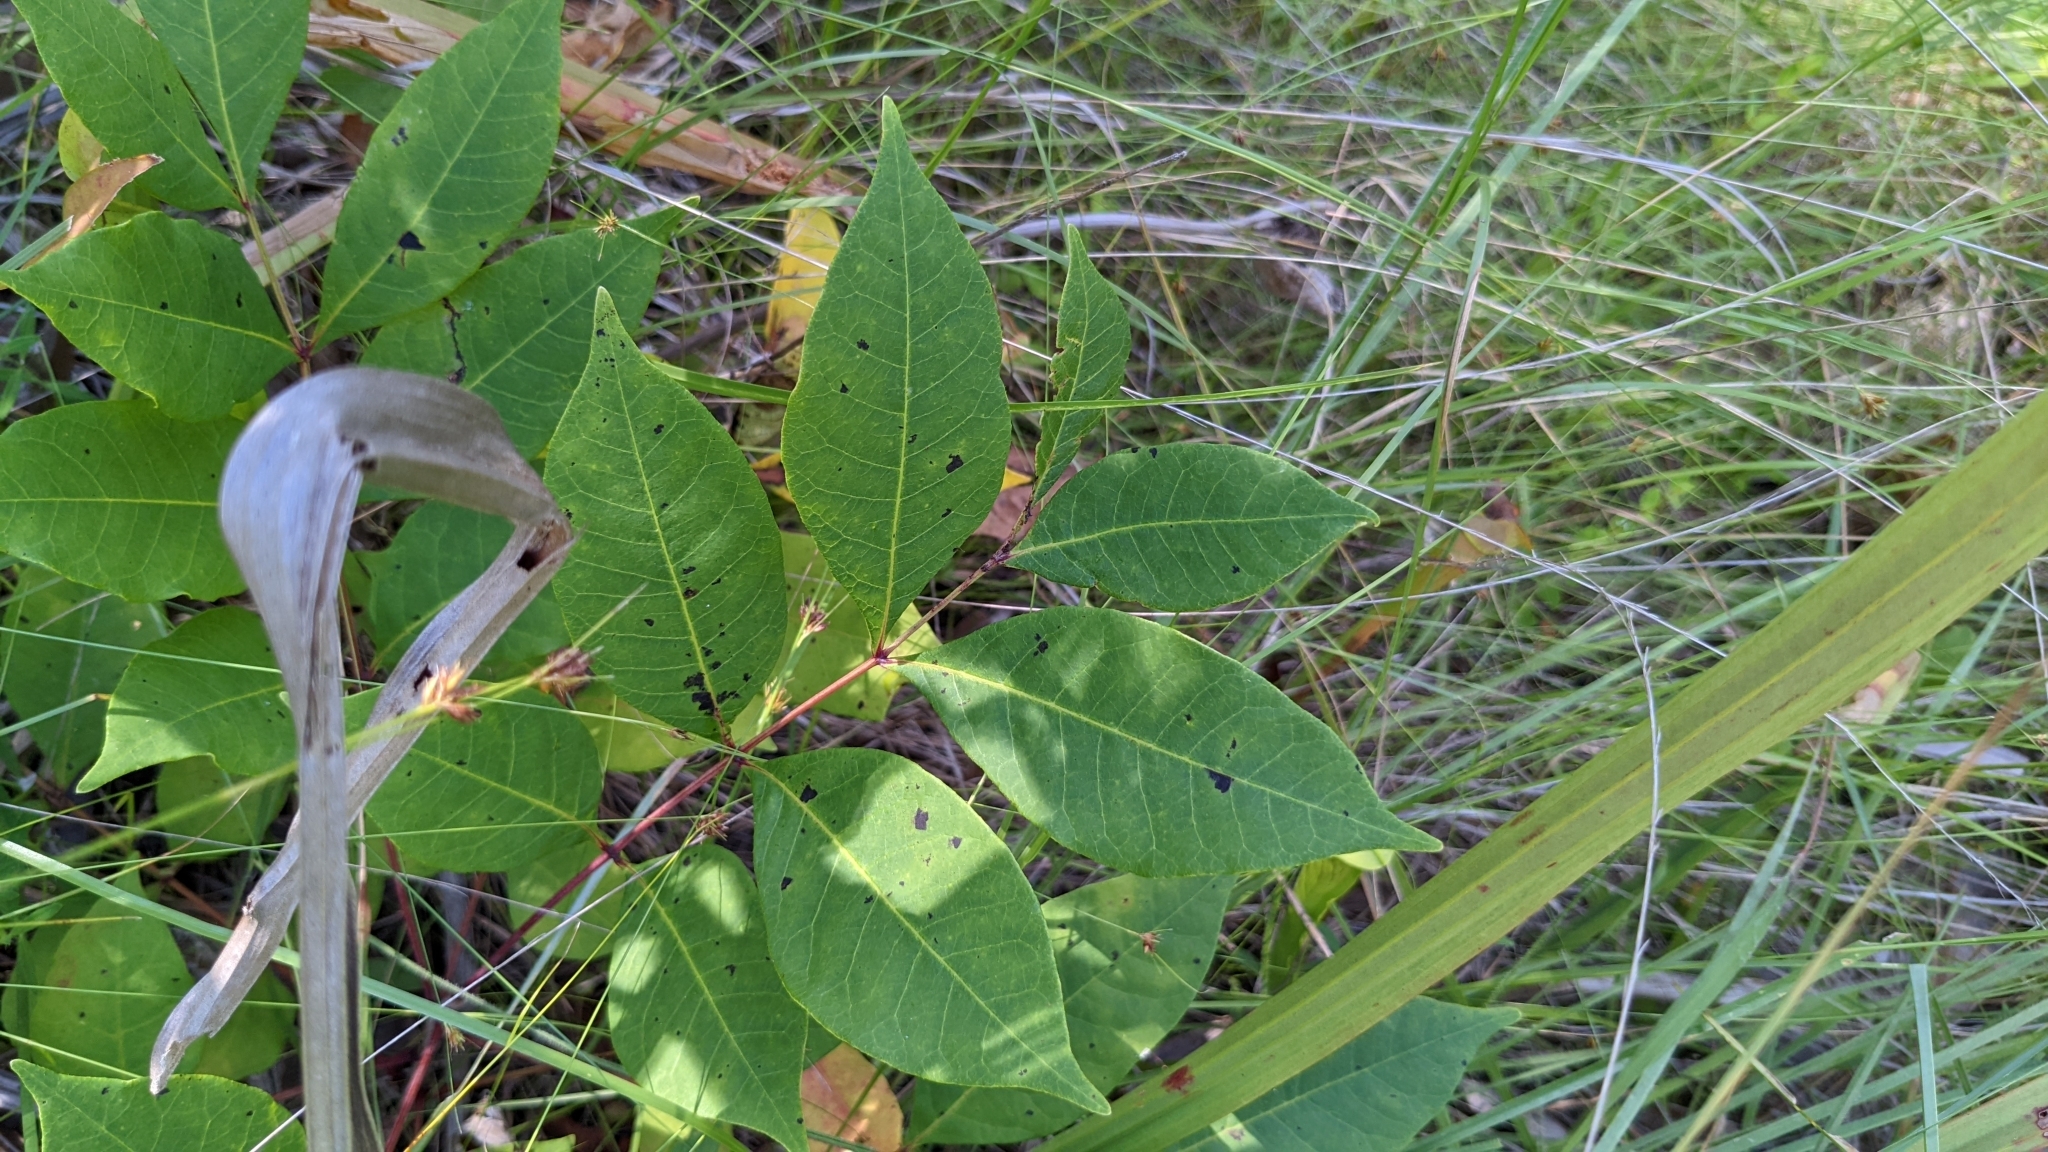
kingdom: Plantae
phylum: Tracheophyta
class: Magnoliopsida
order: Sapindales
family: Anacardiaceae
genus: Toxicodendron
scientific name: Toxicodendron vernix
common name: Poison sumac
